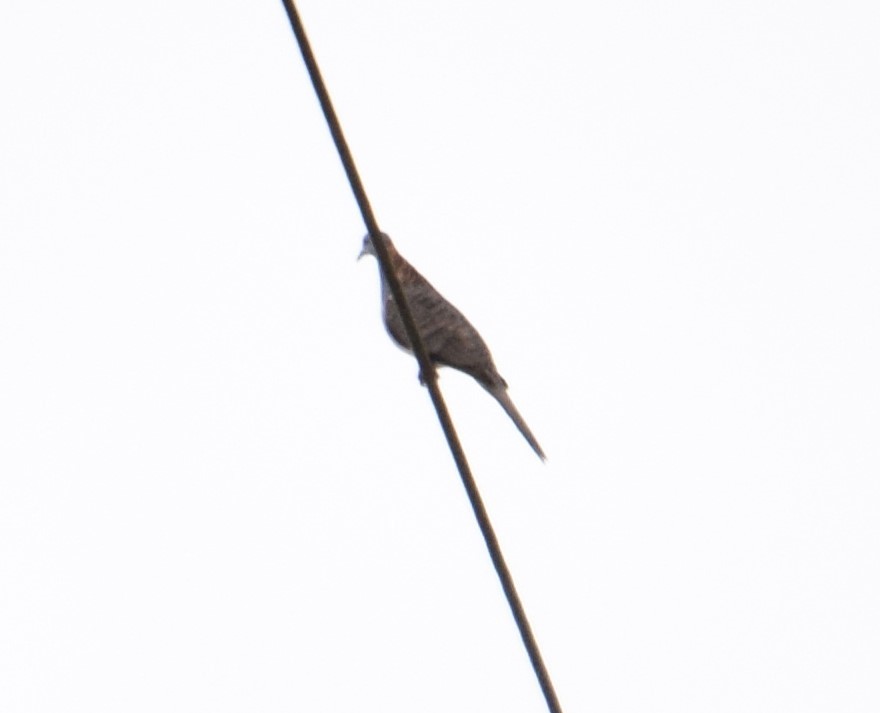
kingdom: Animalia
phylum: Chordata
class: Aves
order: Columbiformes
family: Columbidae
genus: Geopelia
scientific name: Geopelia humeralis
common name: Bar-shouldered dove
